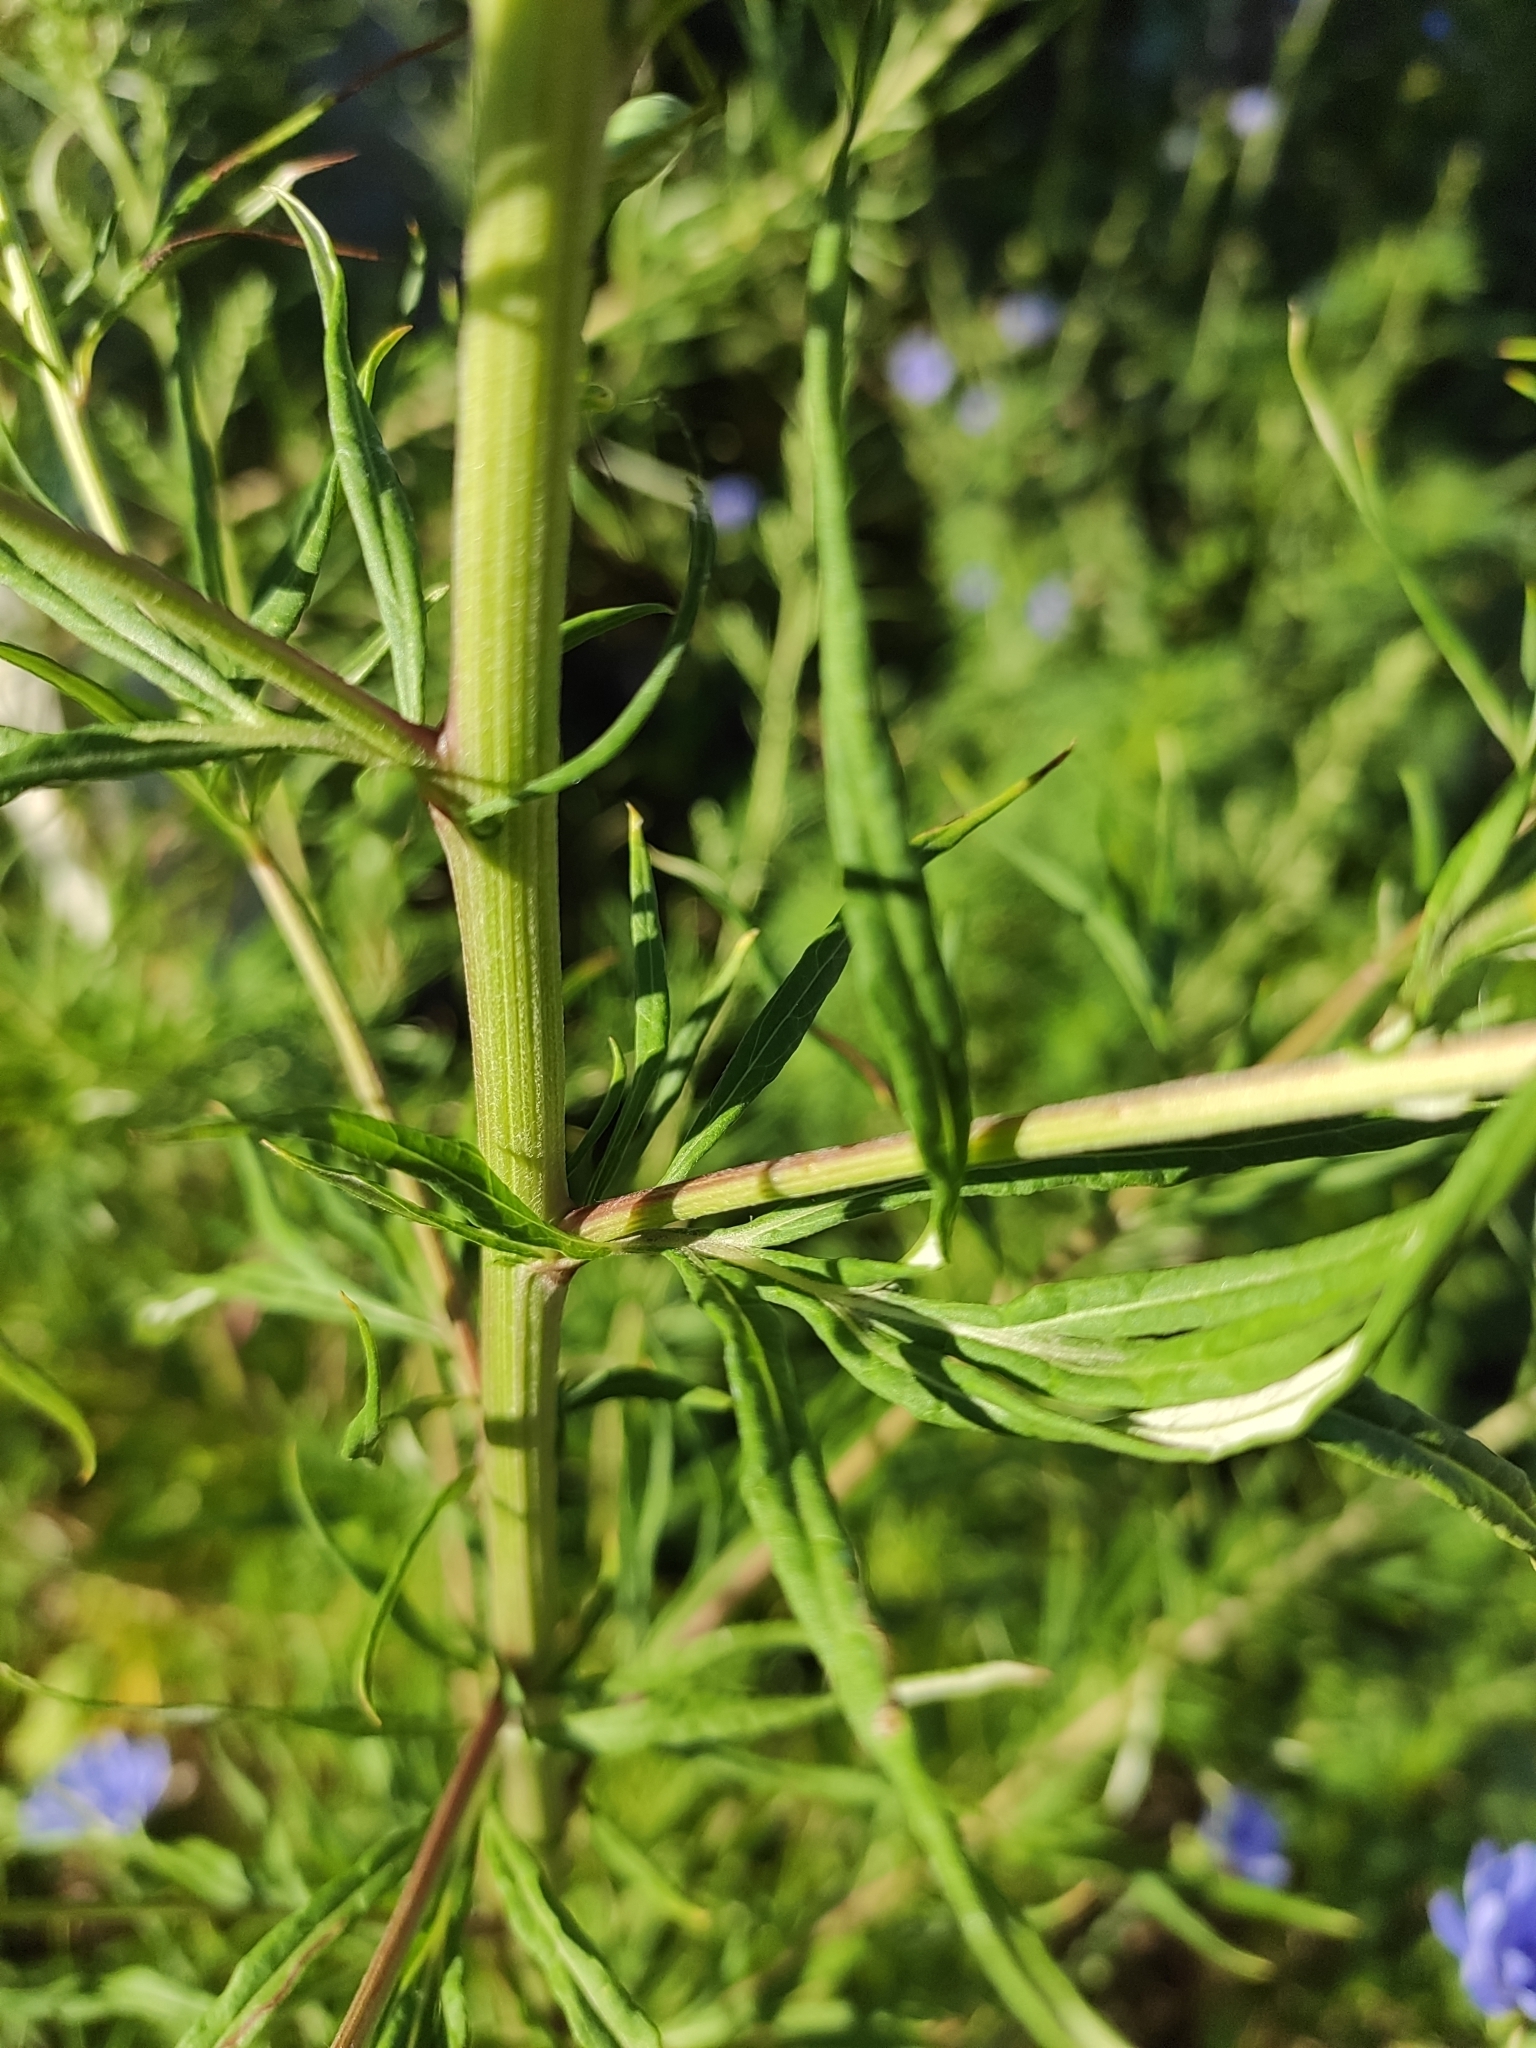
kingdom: Plantae
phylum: Tracheophyta
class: Magnoliopsida
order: Asterales
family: Asteraceae
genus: Artemisia
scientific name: Artemisia vulgaris
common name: Mugwort
